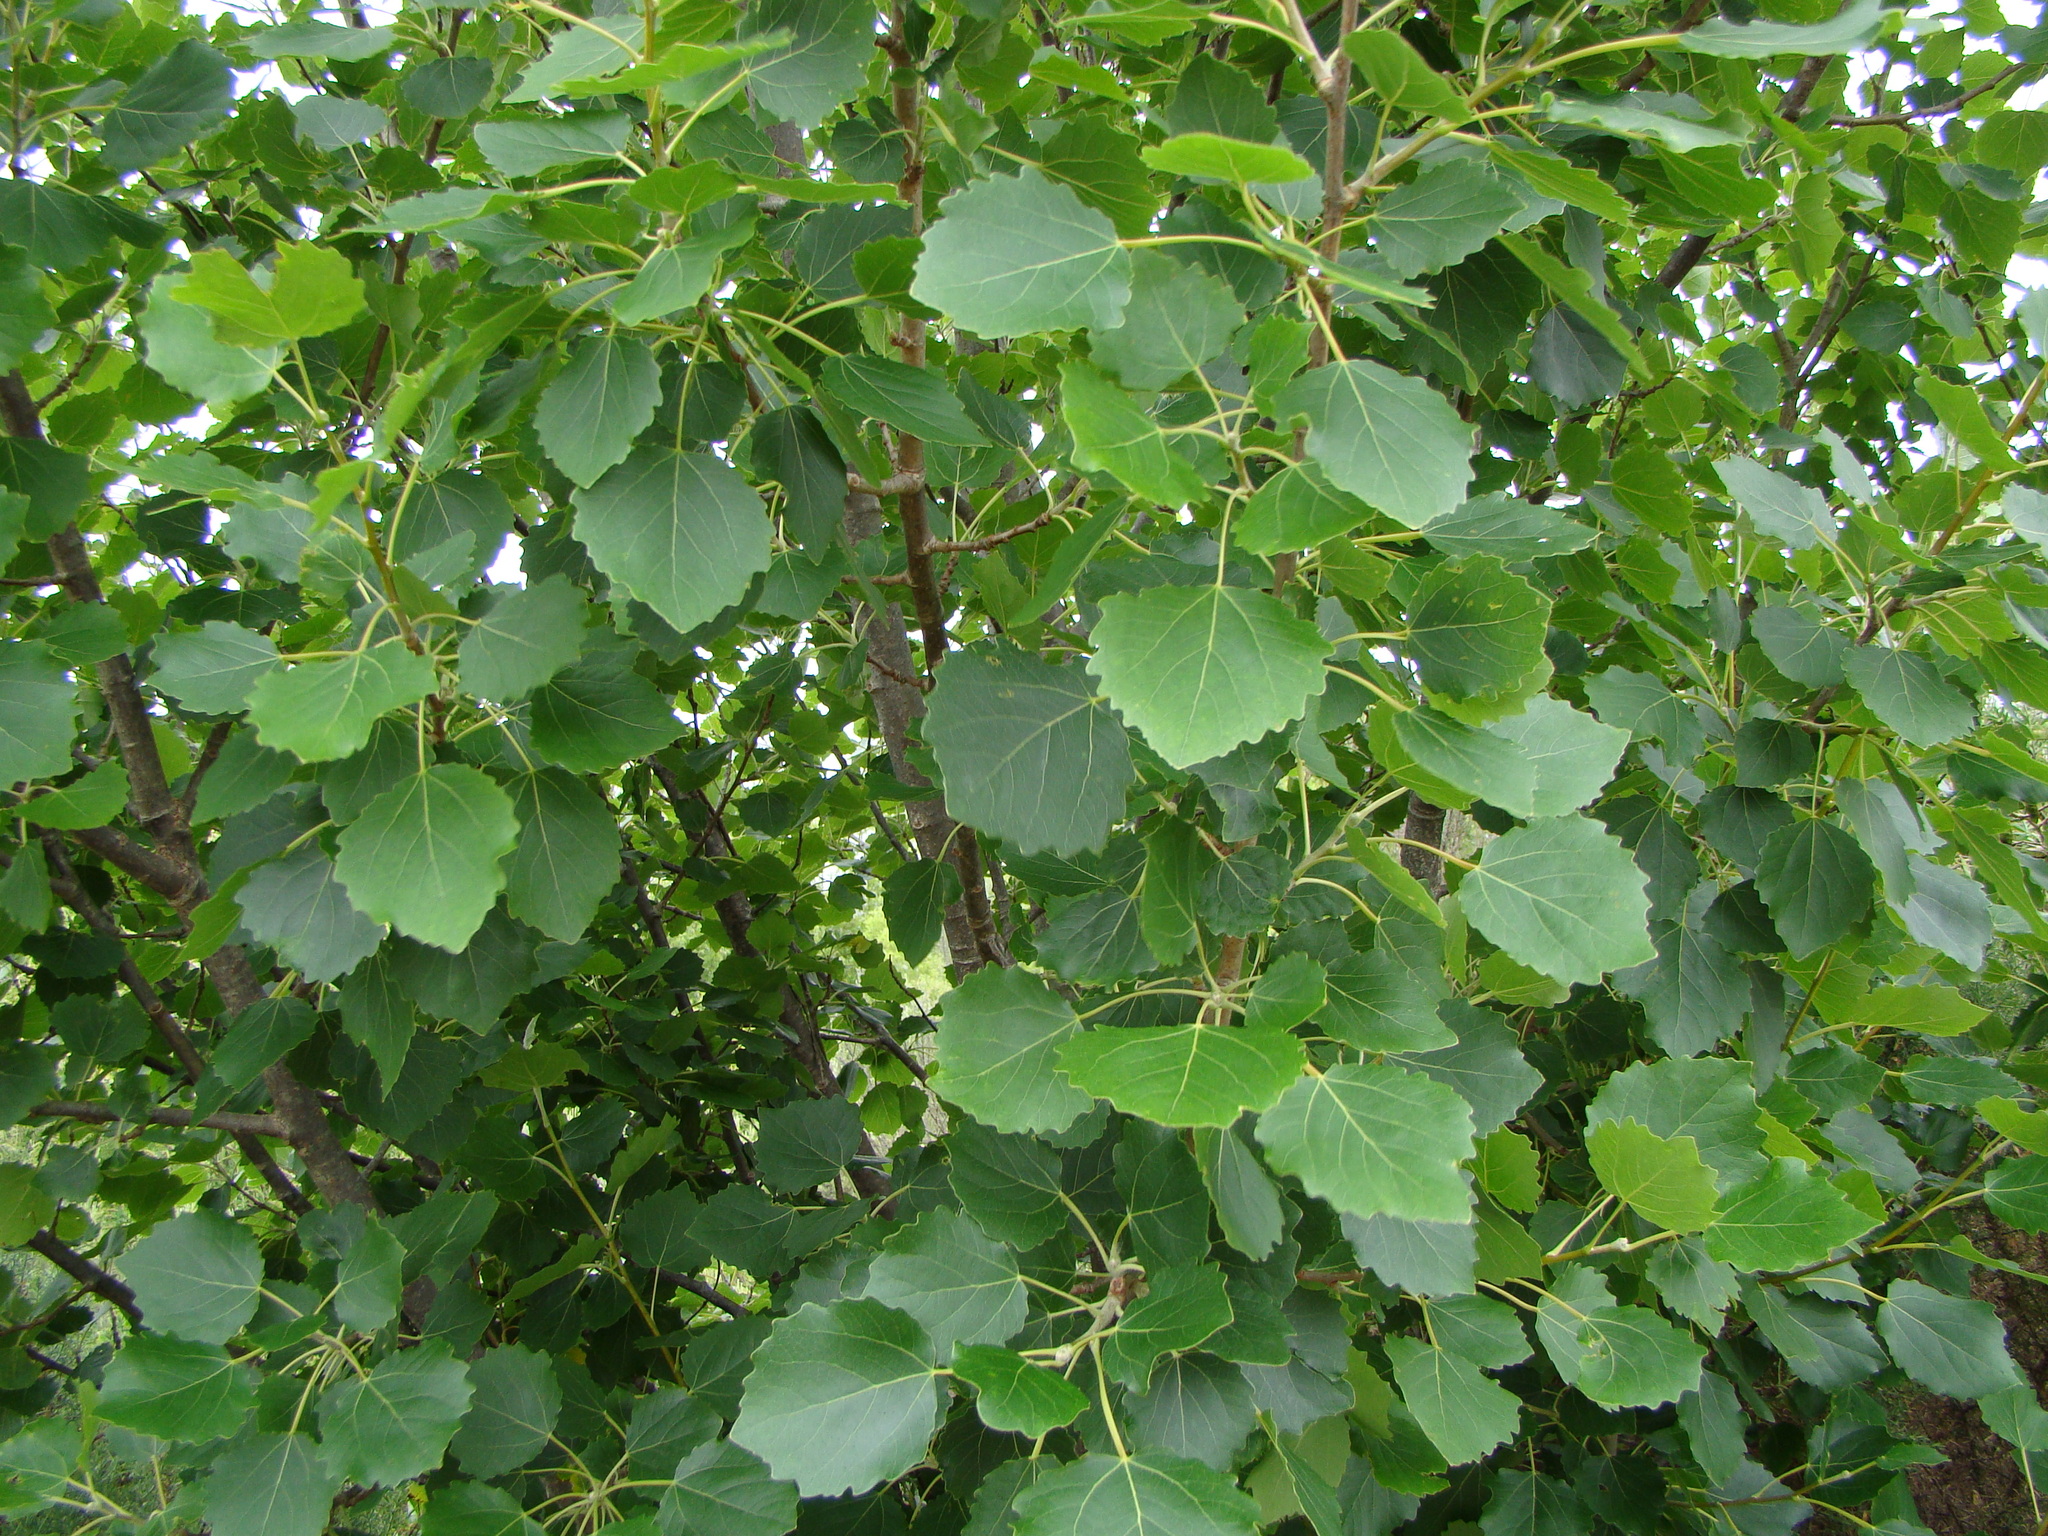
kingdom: Plantae
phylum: Tracheophyta
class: Magnoliopsida
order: Malpighiales
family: Salicaceae
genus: Populus
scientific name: Populus tremula
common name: European aspen
